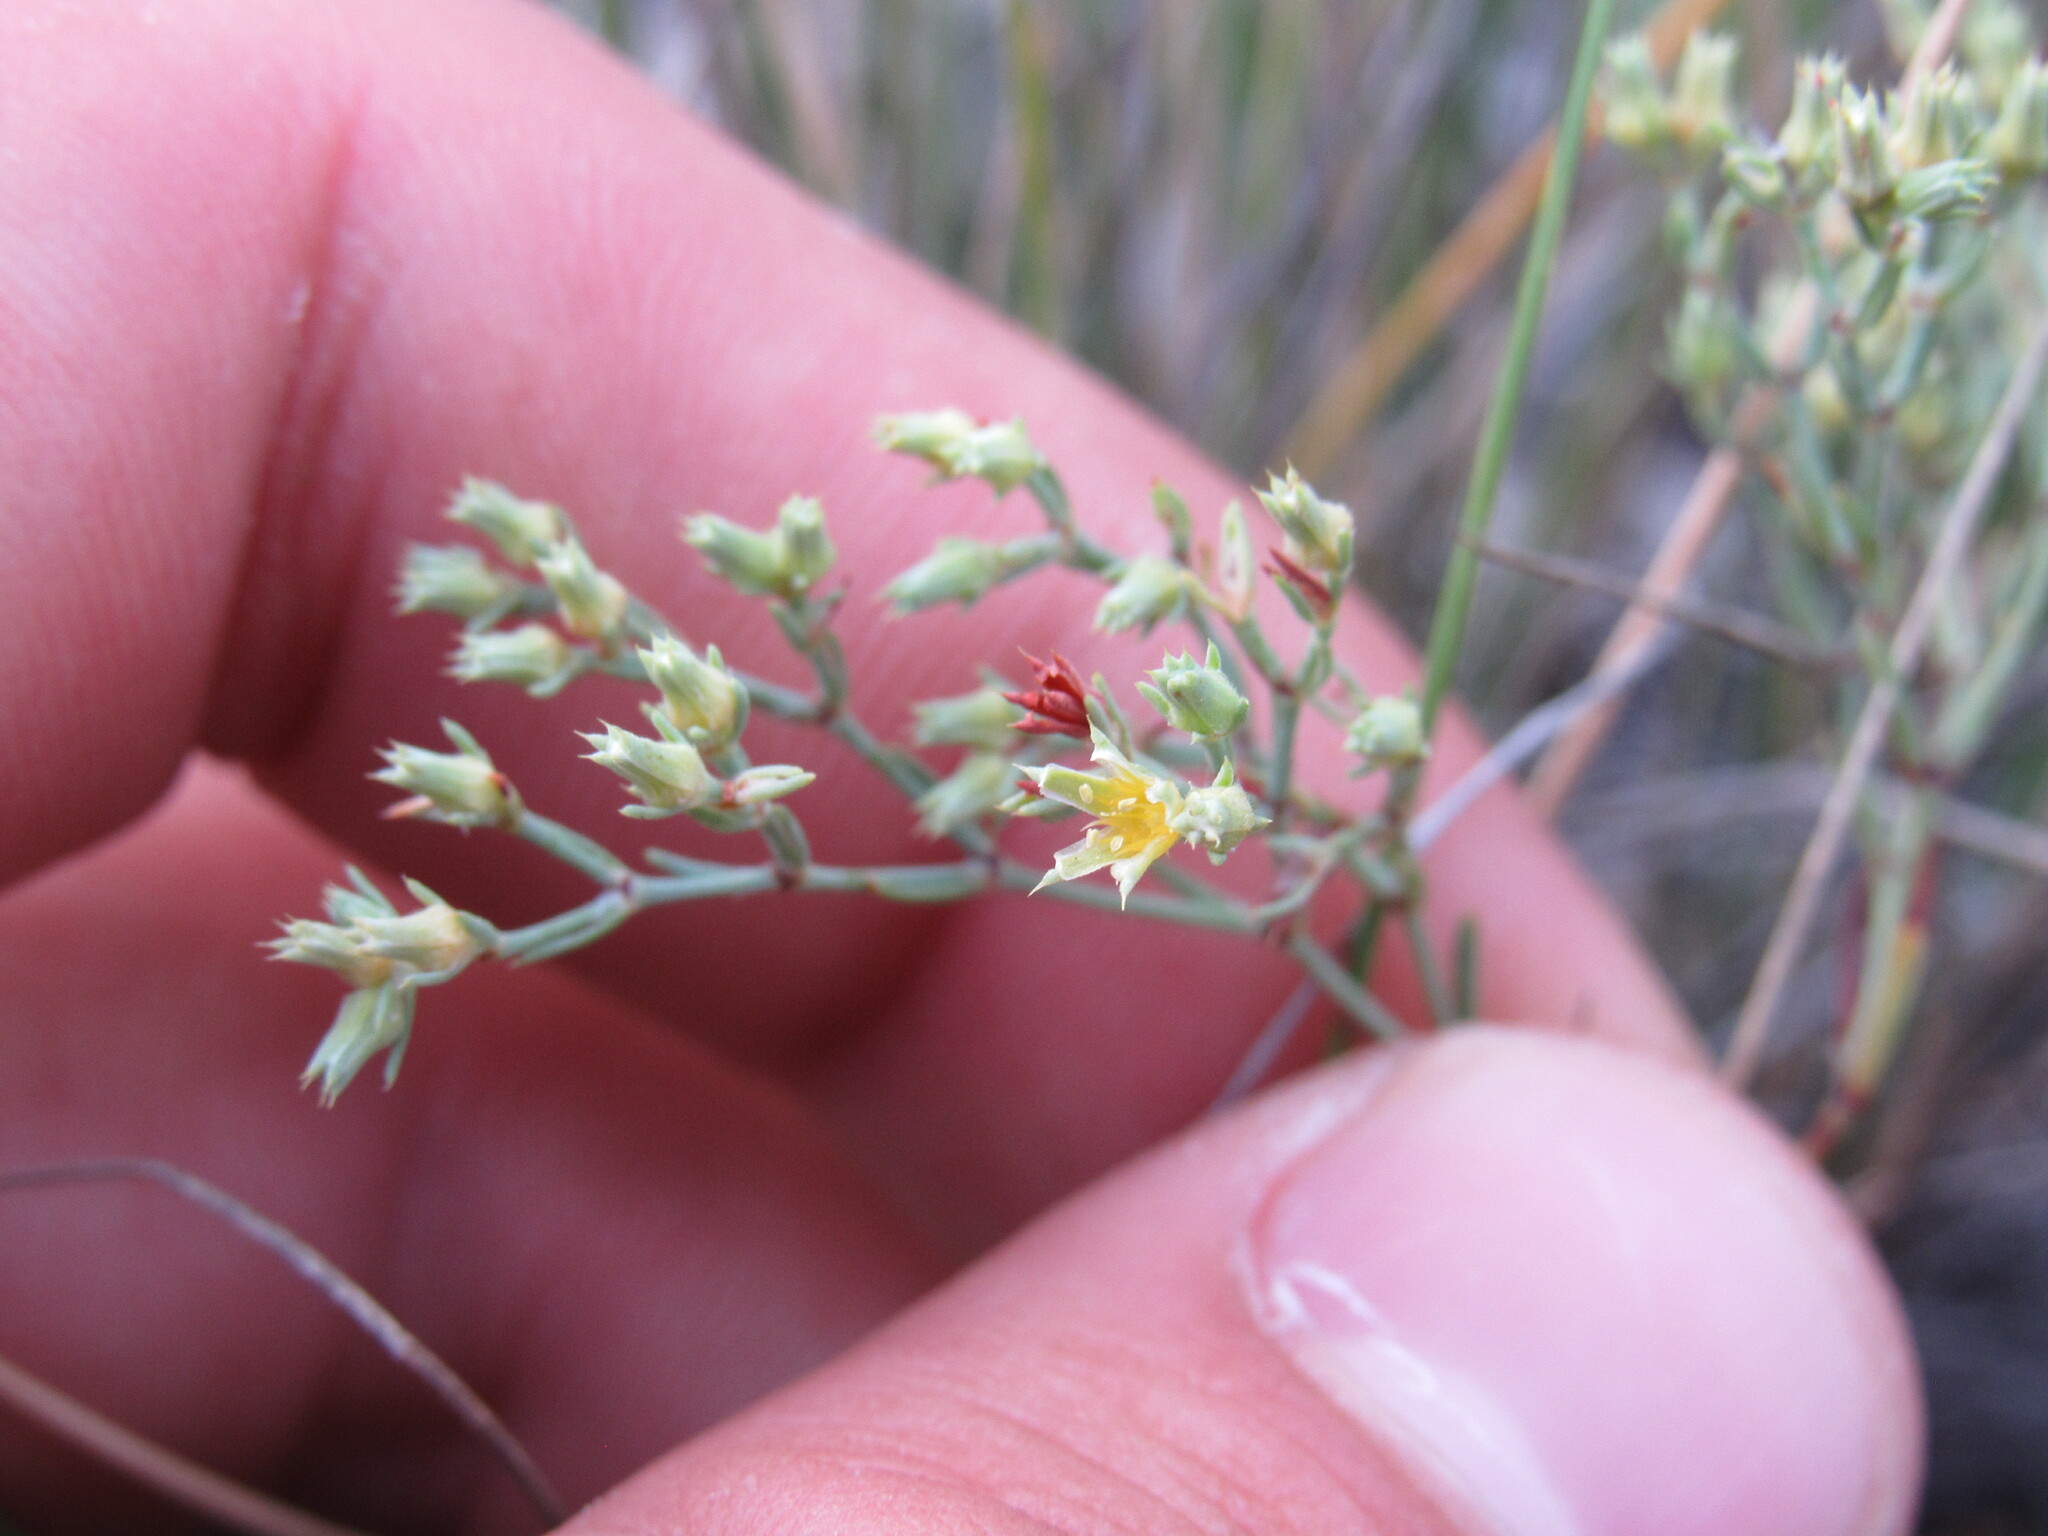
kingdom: Plantae
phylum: Tracheophyta
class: Magnoliopsida
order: Caryophyllales
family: Caryophyllaceae
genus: Paronychia
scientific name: Paronychia jamesii
